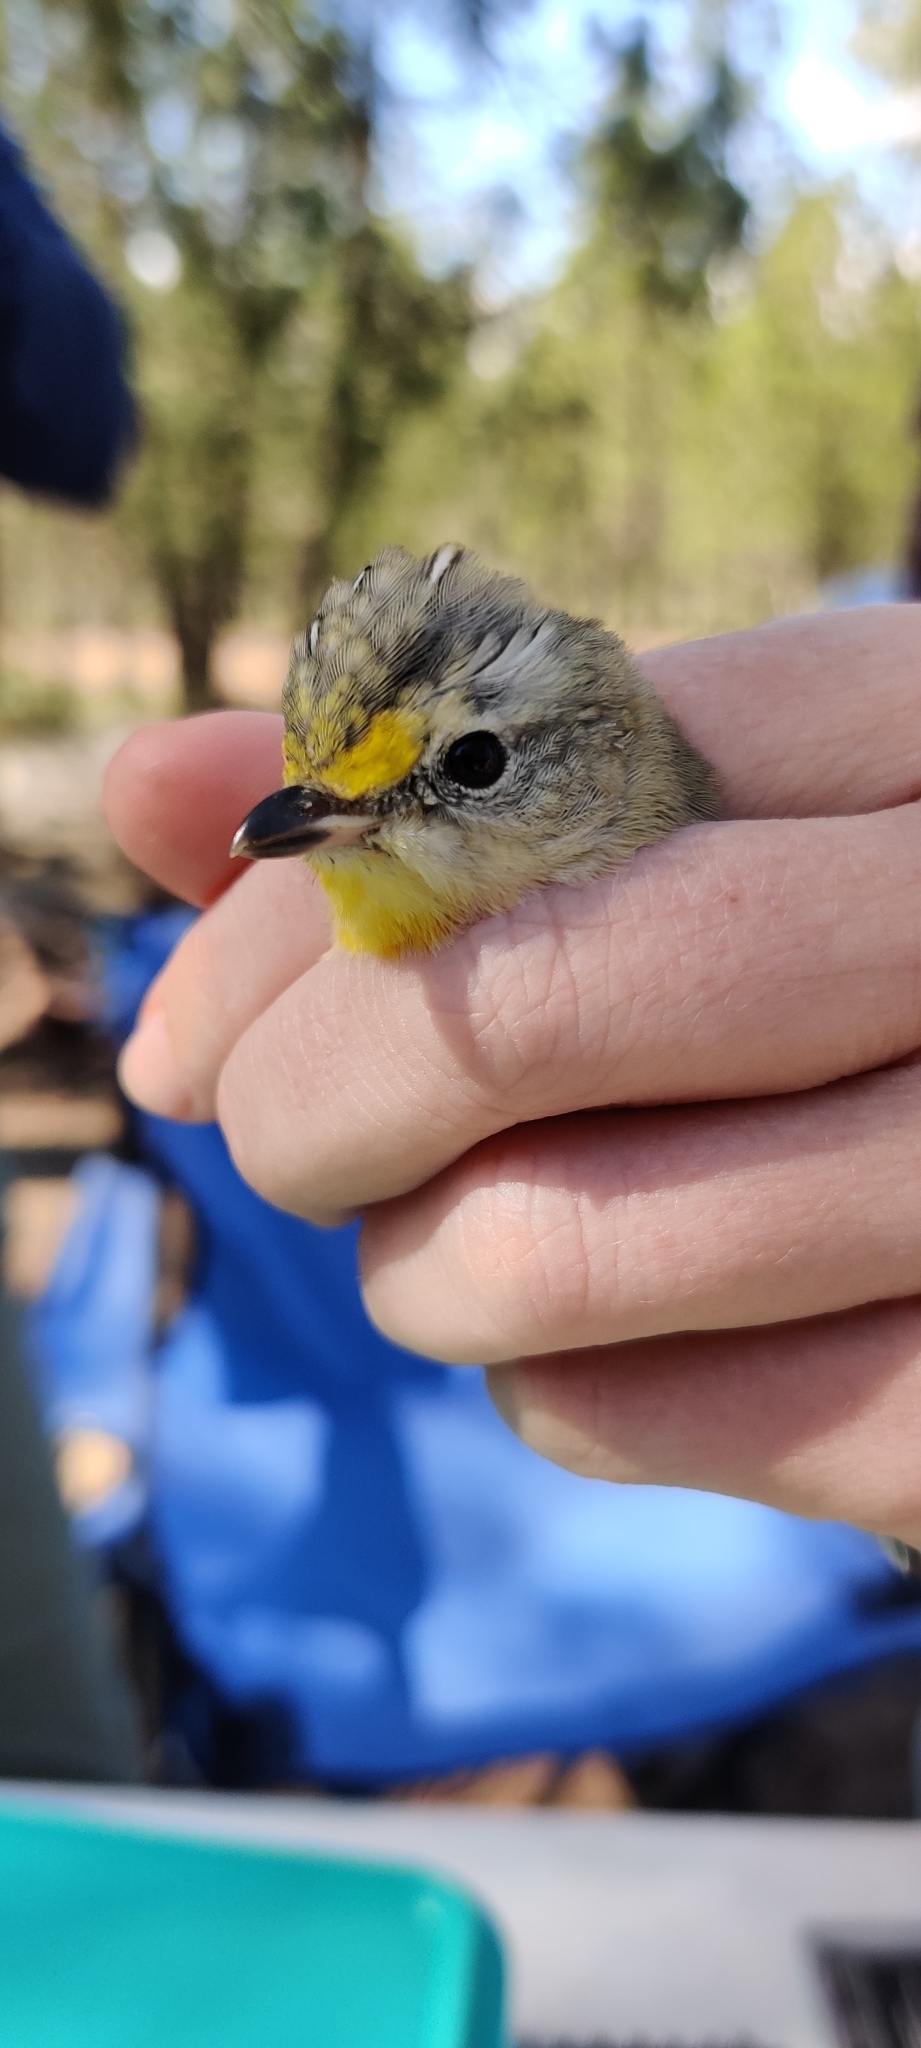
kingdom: Animalia
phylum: Chordata
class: Aves
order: Passeriformes
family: Pardalotidae
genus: Pardalotus
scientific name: Pardalotus striatus
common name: Striated pardalote
